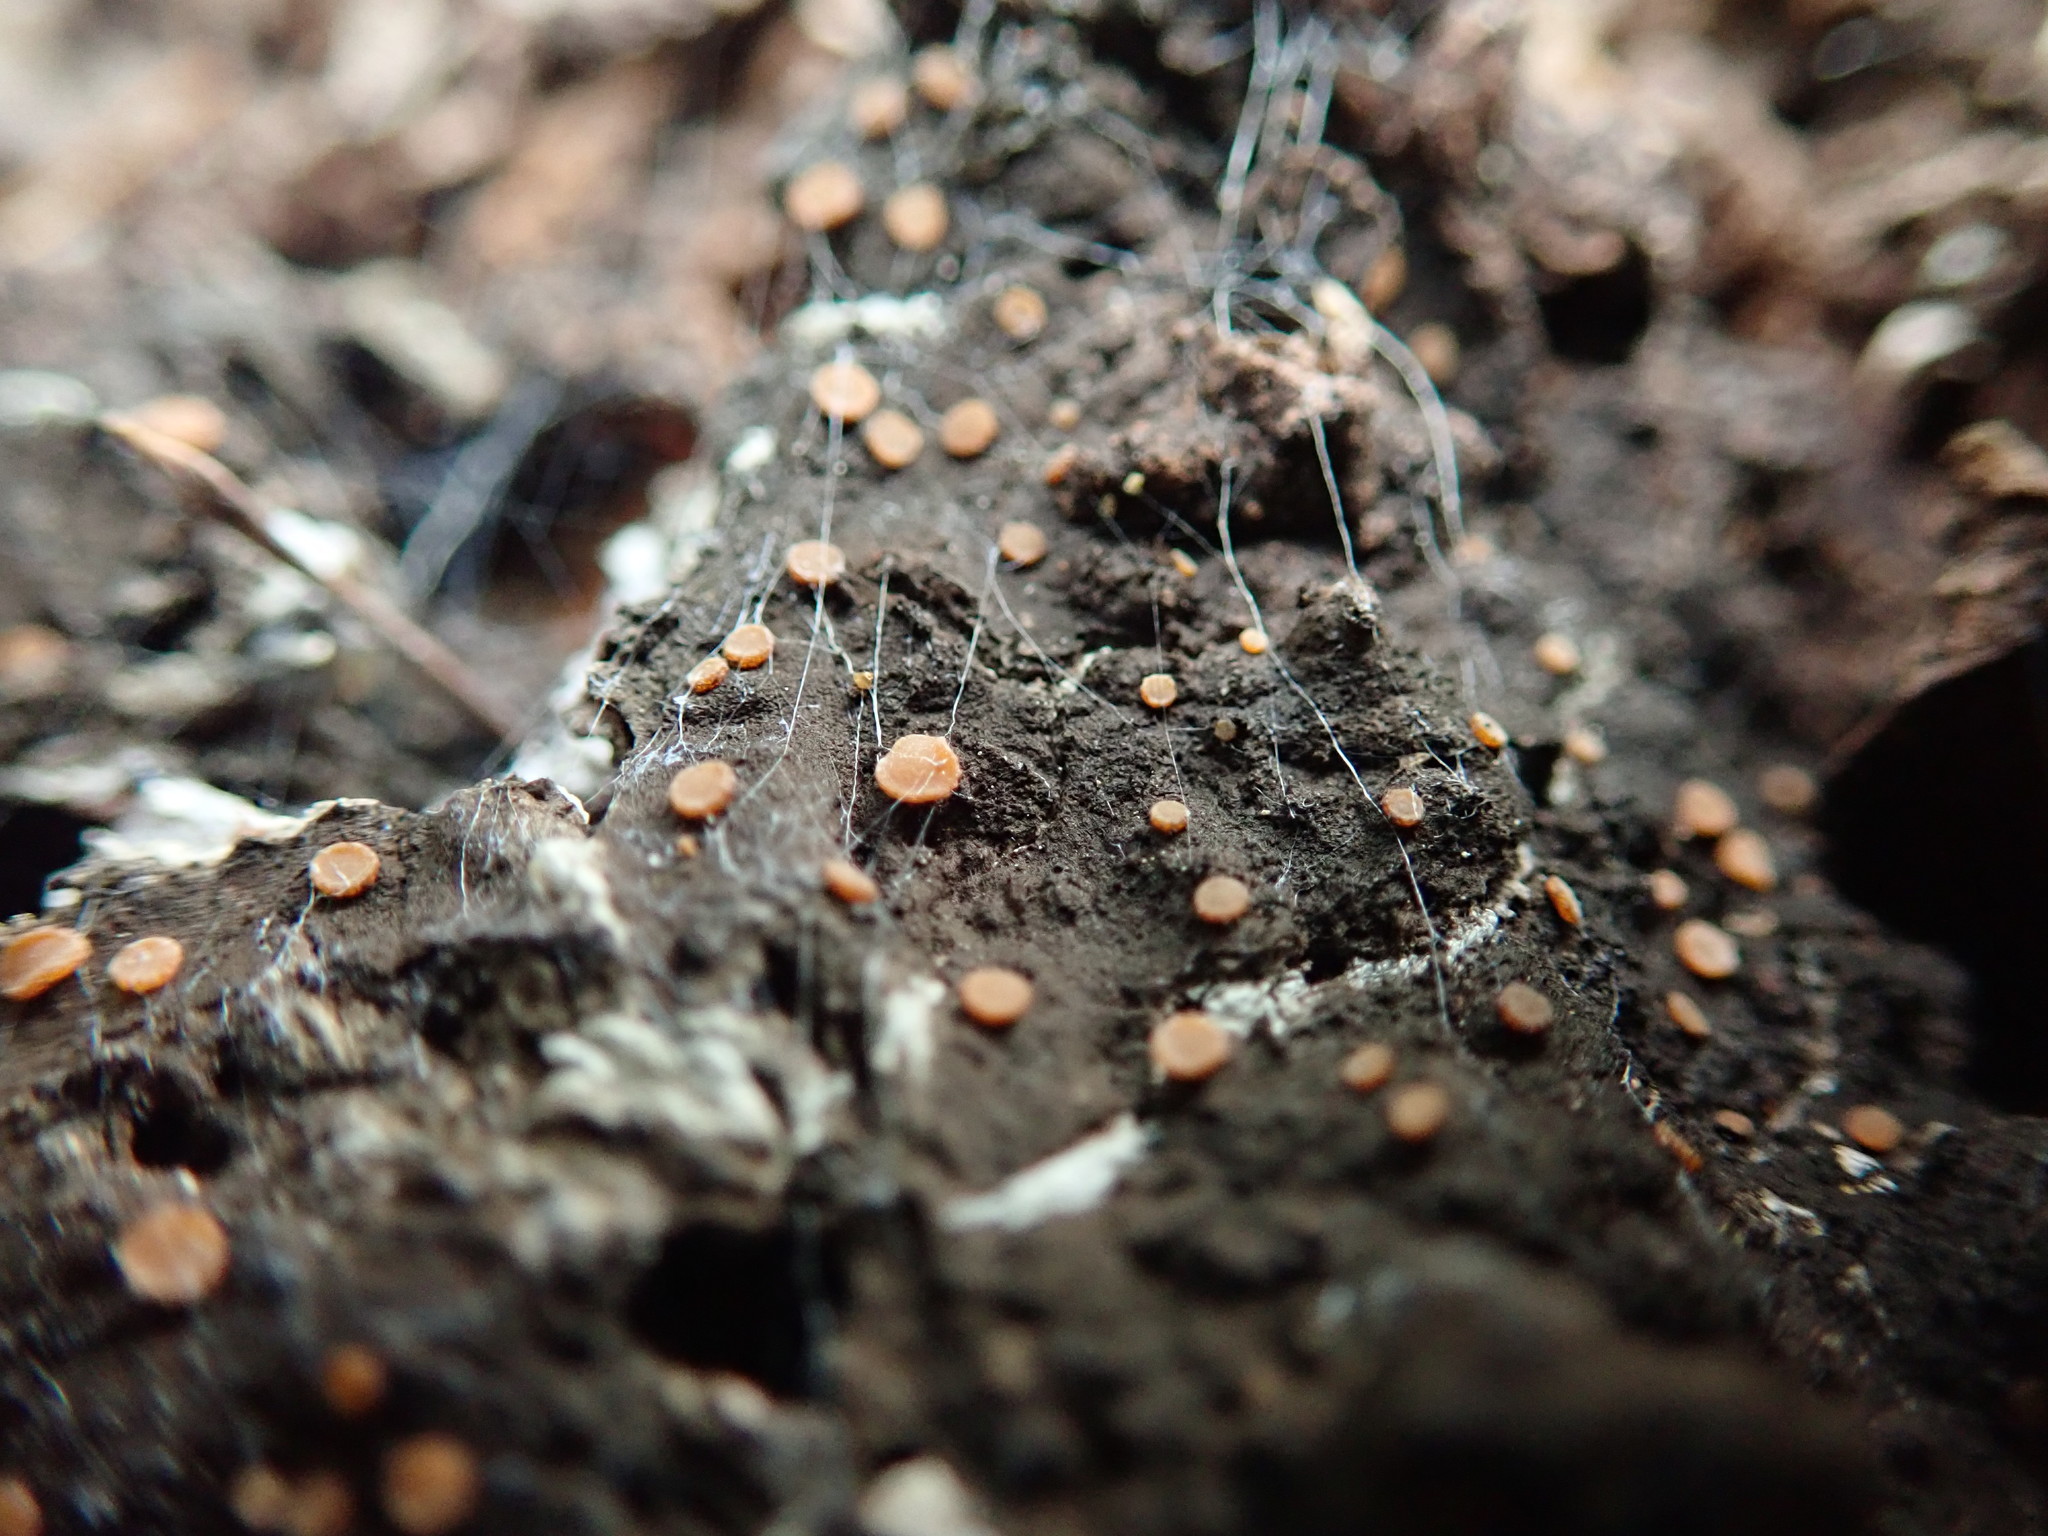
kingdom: Fungi
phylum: Ascomycota
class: Sareomycetes
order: Sareales
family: Sareaceae
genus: Sarea
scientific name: Sarea resinae
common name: Sarea lichen
